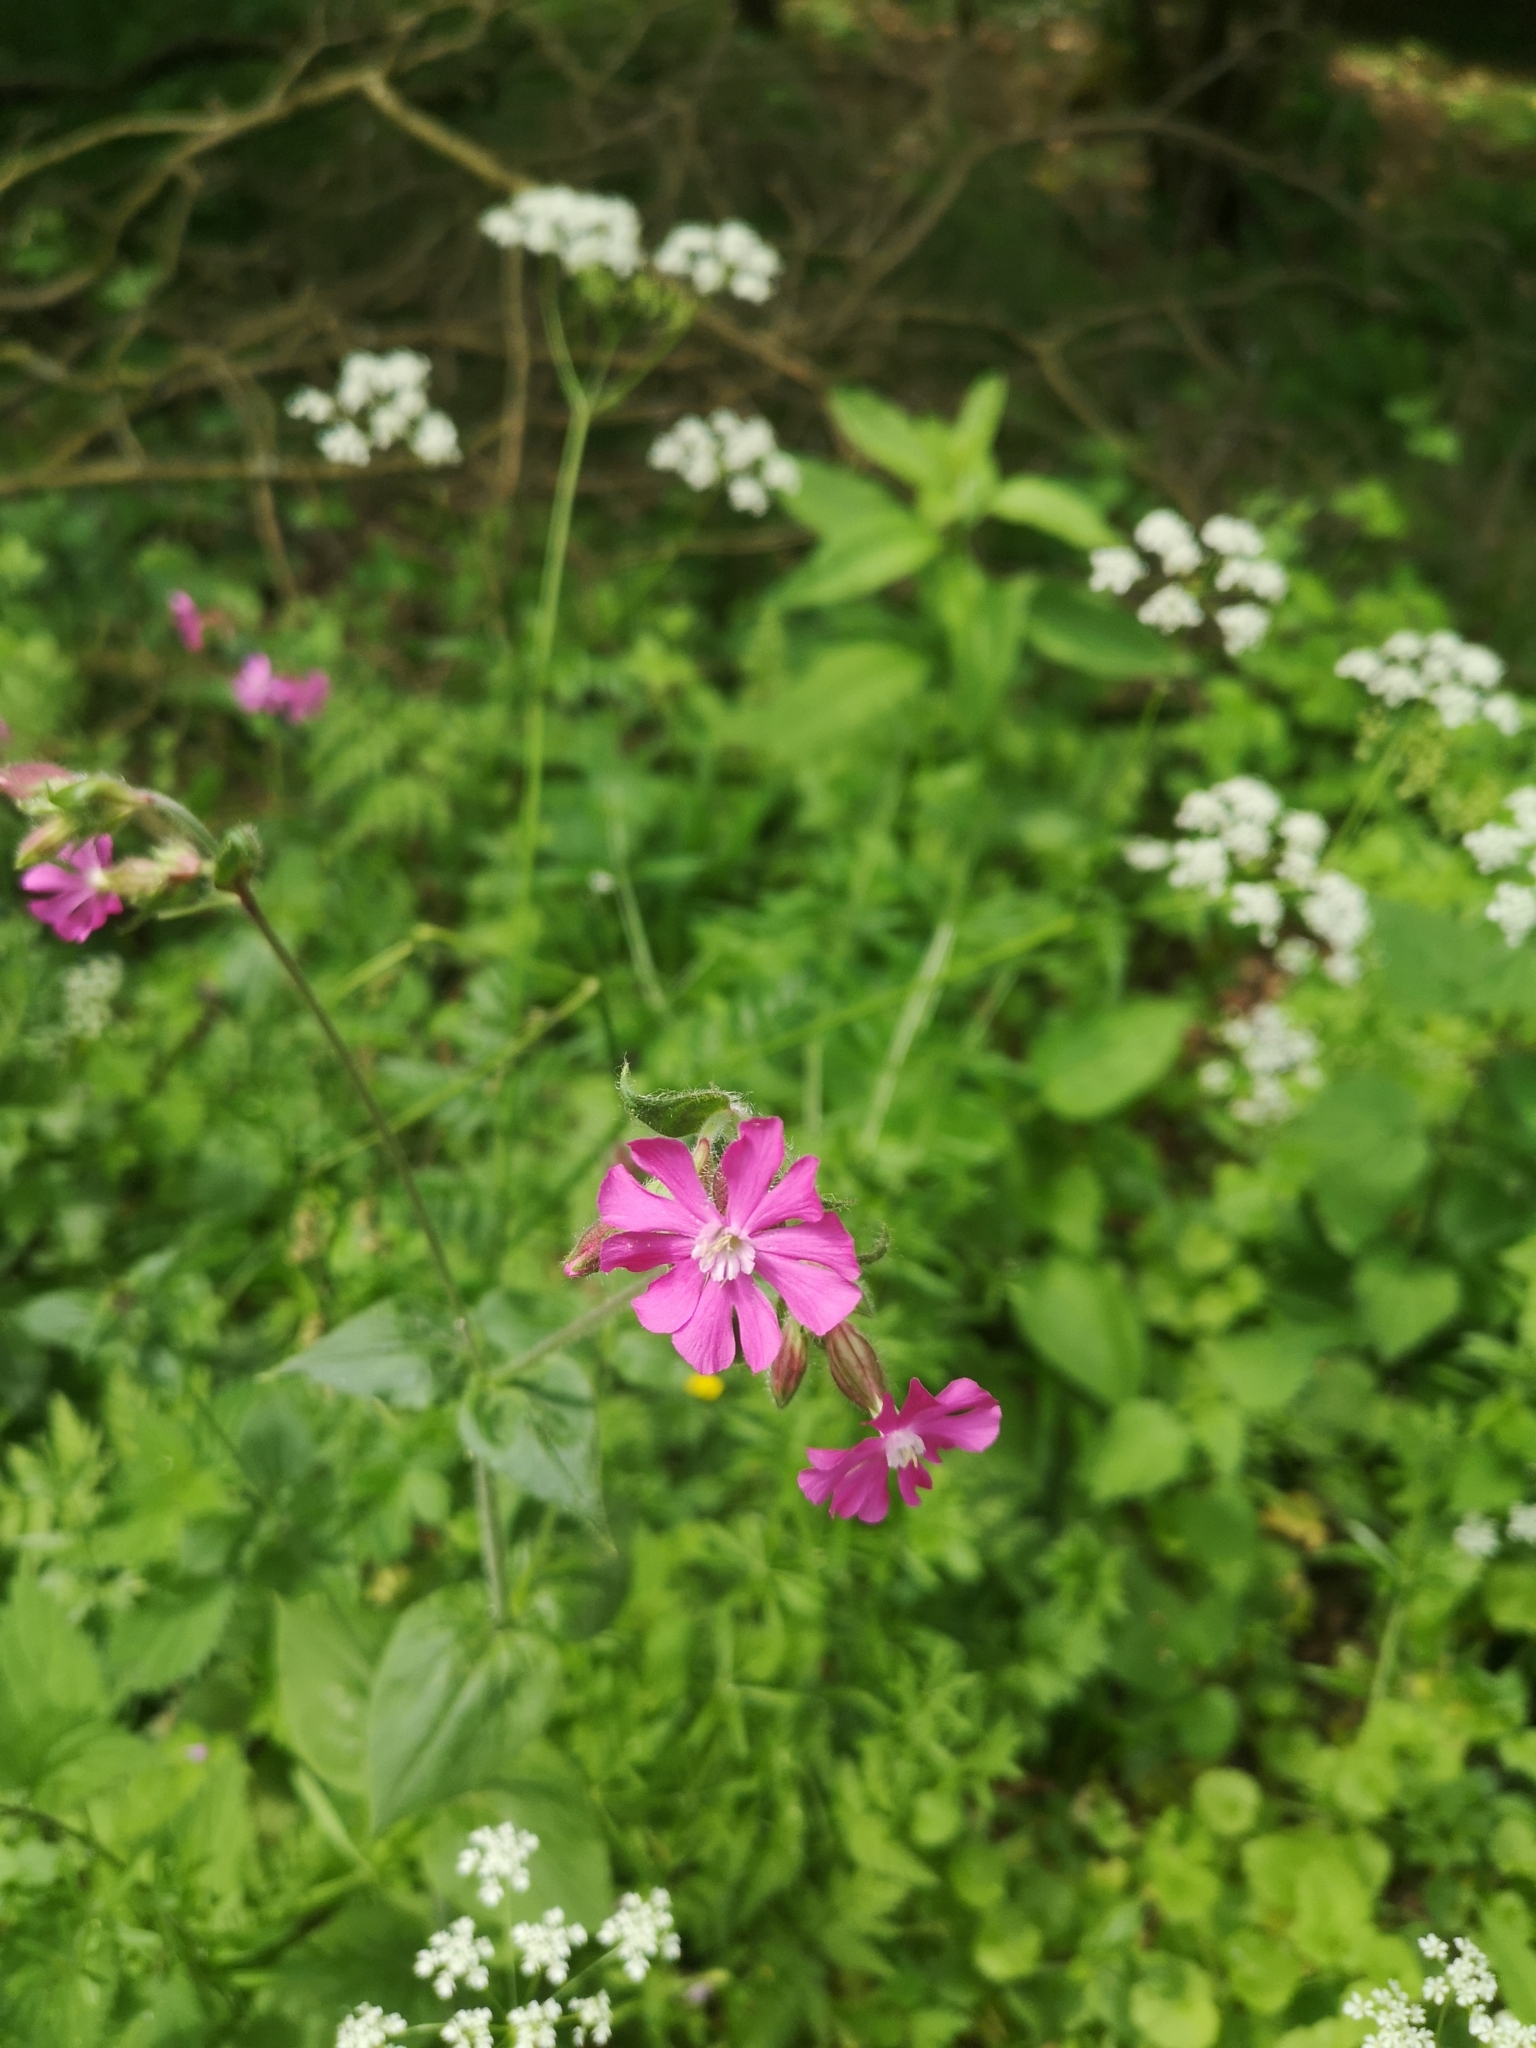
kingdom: Plantae
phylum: Tracheophyta
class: Magnoliopsida
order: Caryophyllales
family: Caryophyllaceae
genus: Silene
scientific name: Silene dioica
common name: Red campion
